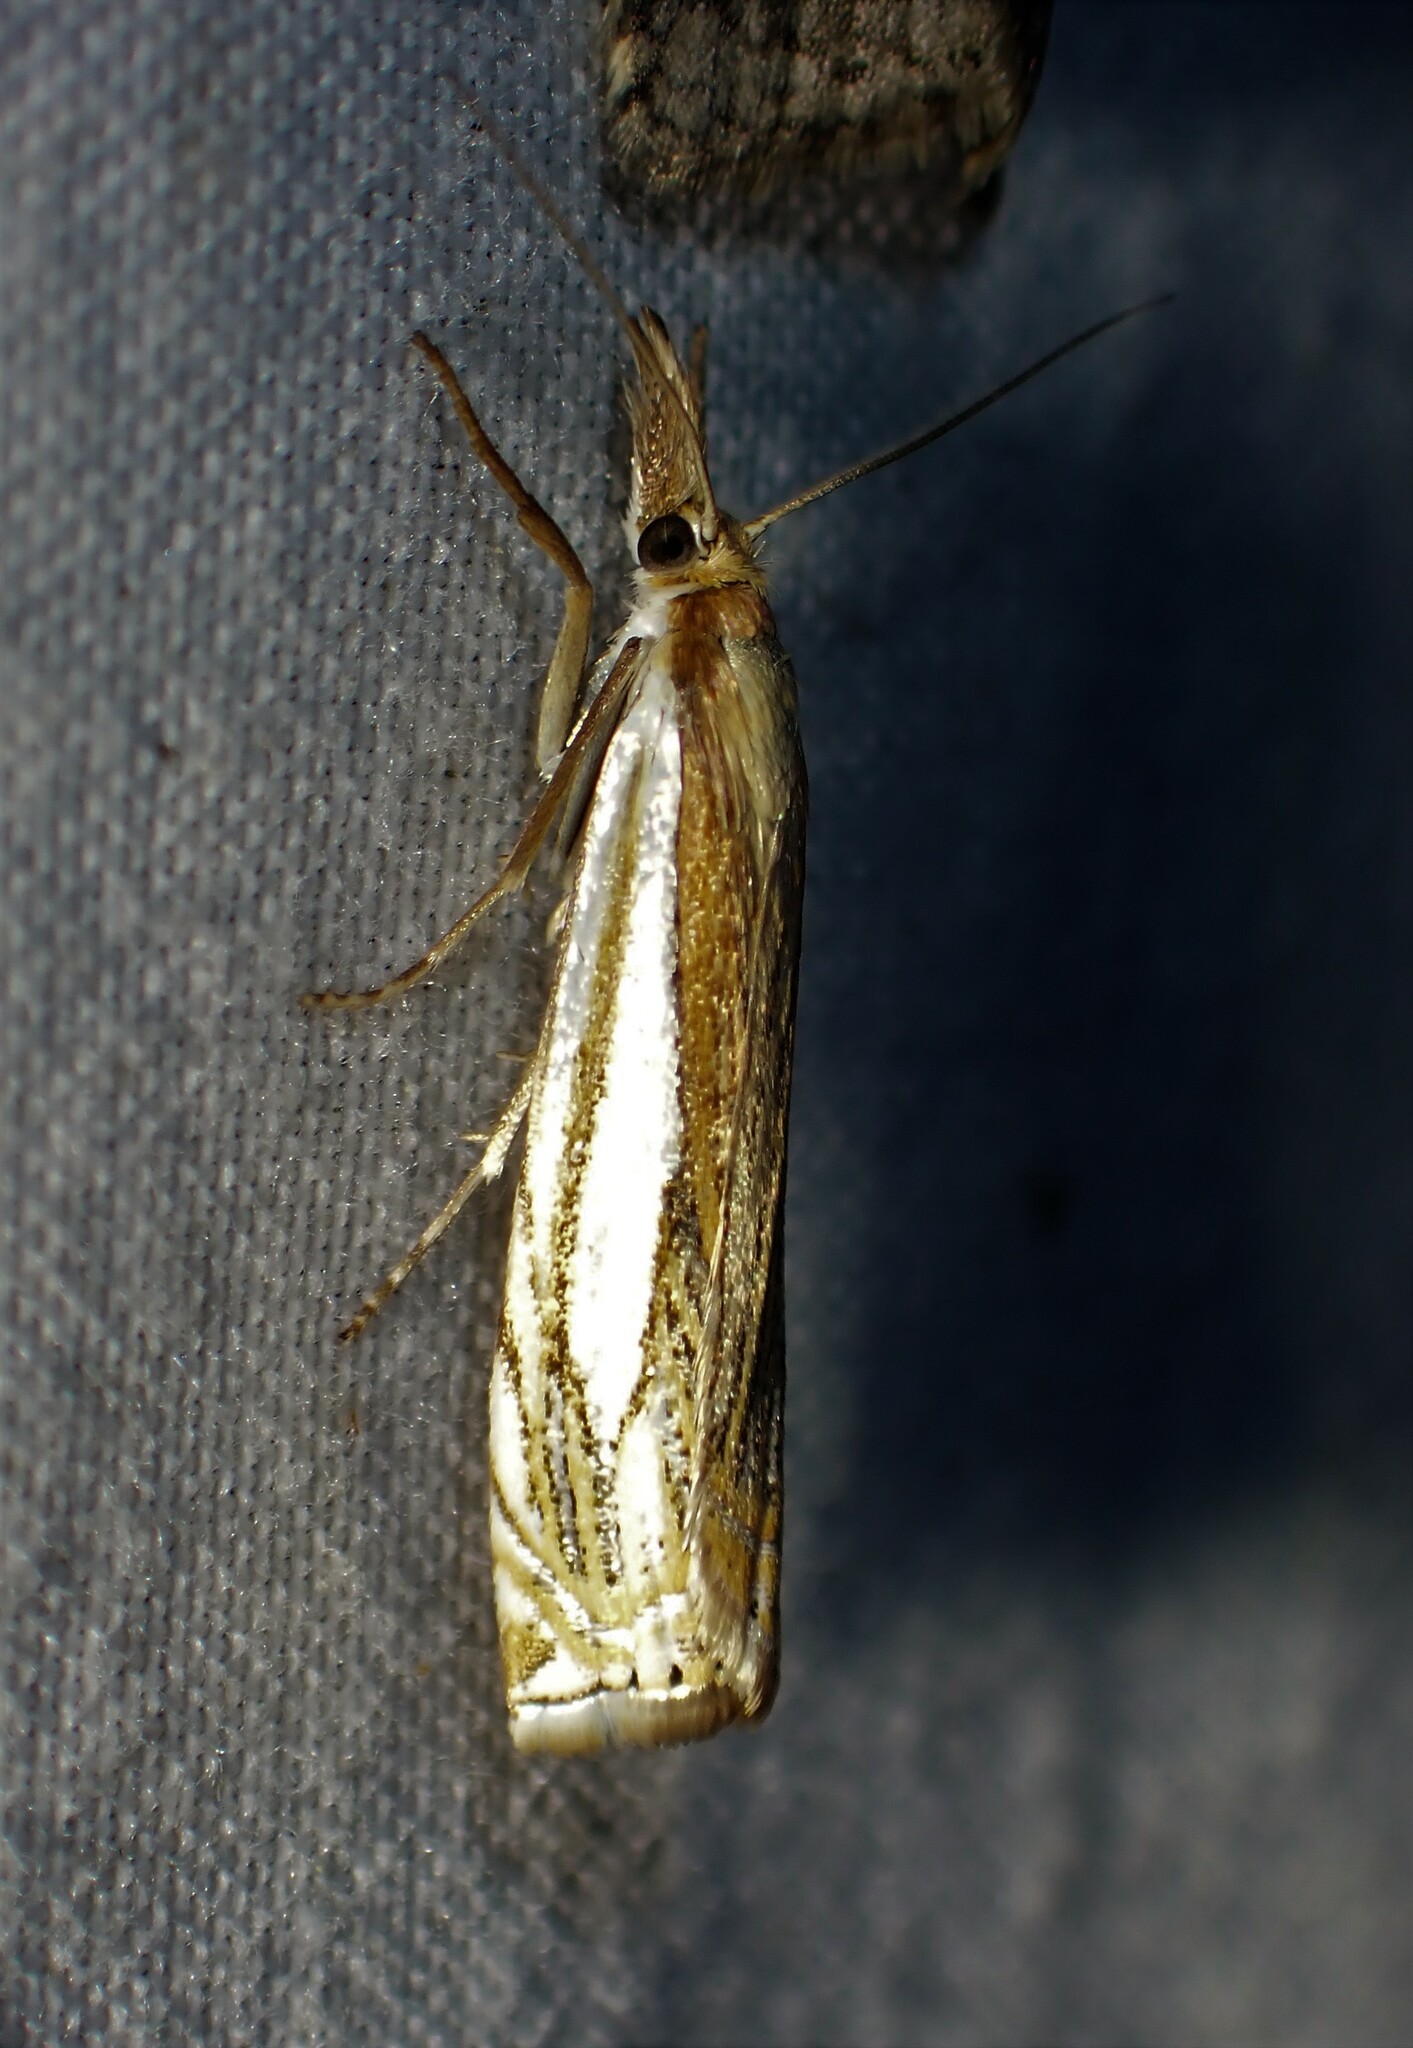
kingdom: Animalia
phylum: Arthropoda
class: Insecta
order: Lepidoptera
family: Crambidae
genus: Crambus
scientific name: Crambus saltuellus
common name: Pasture grass-veneer
